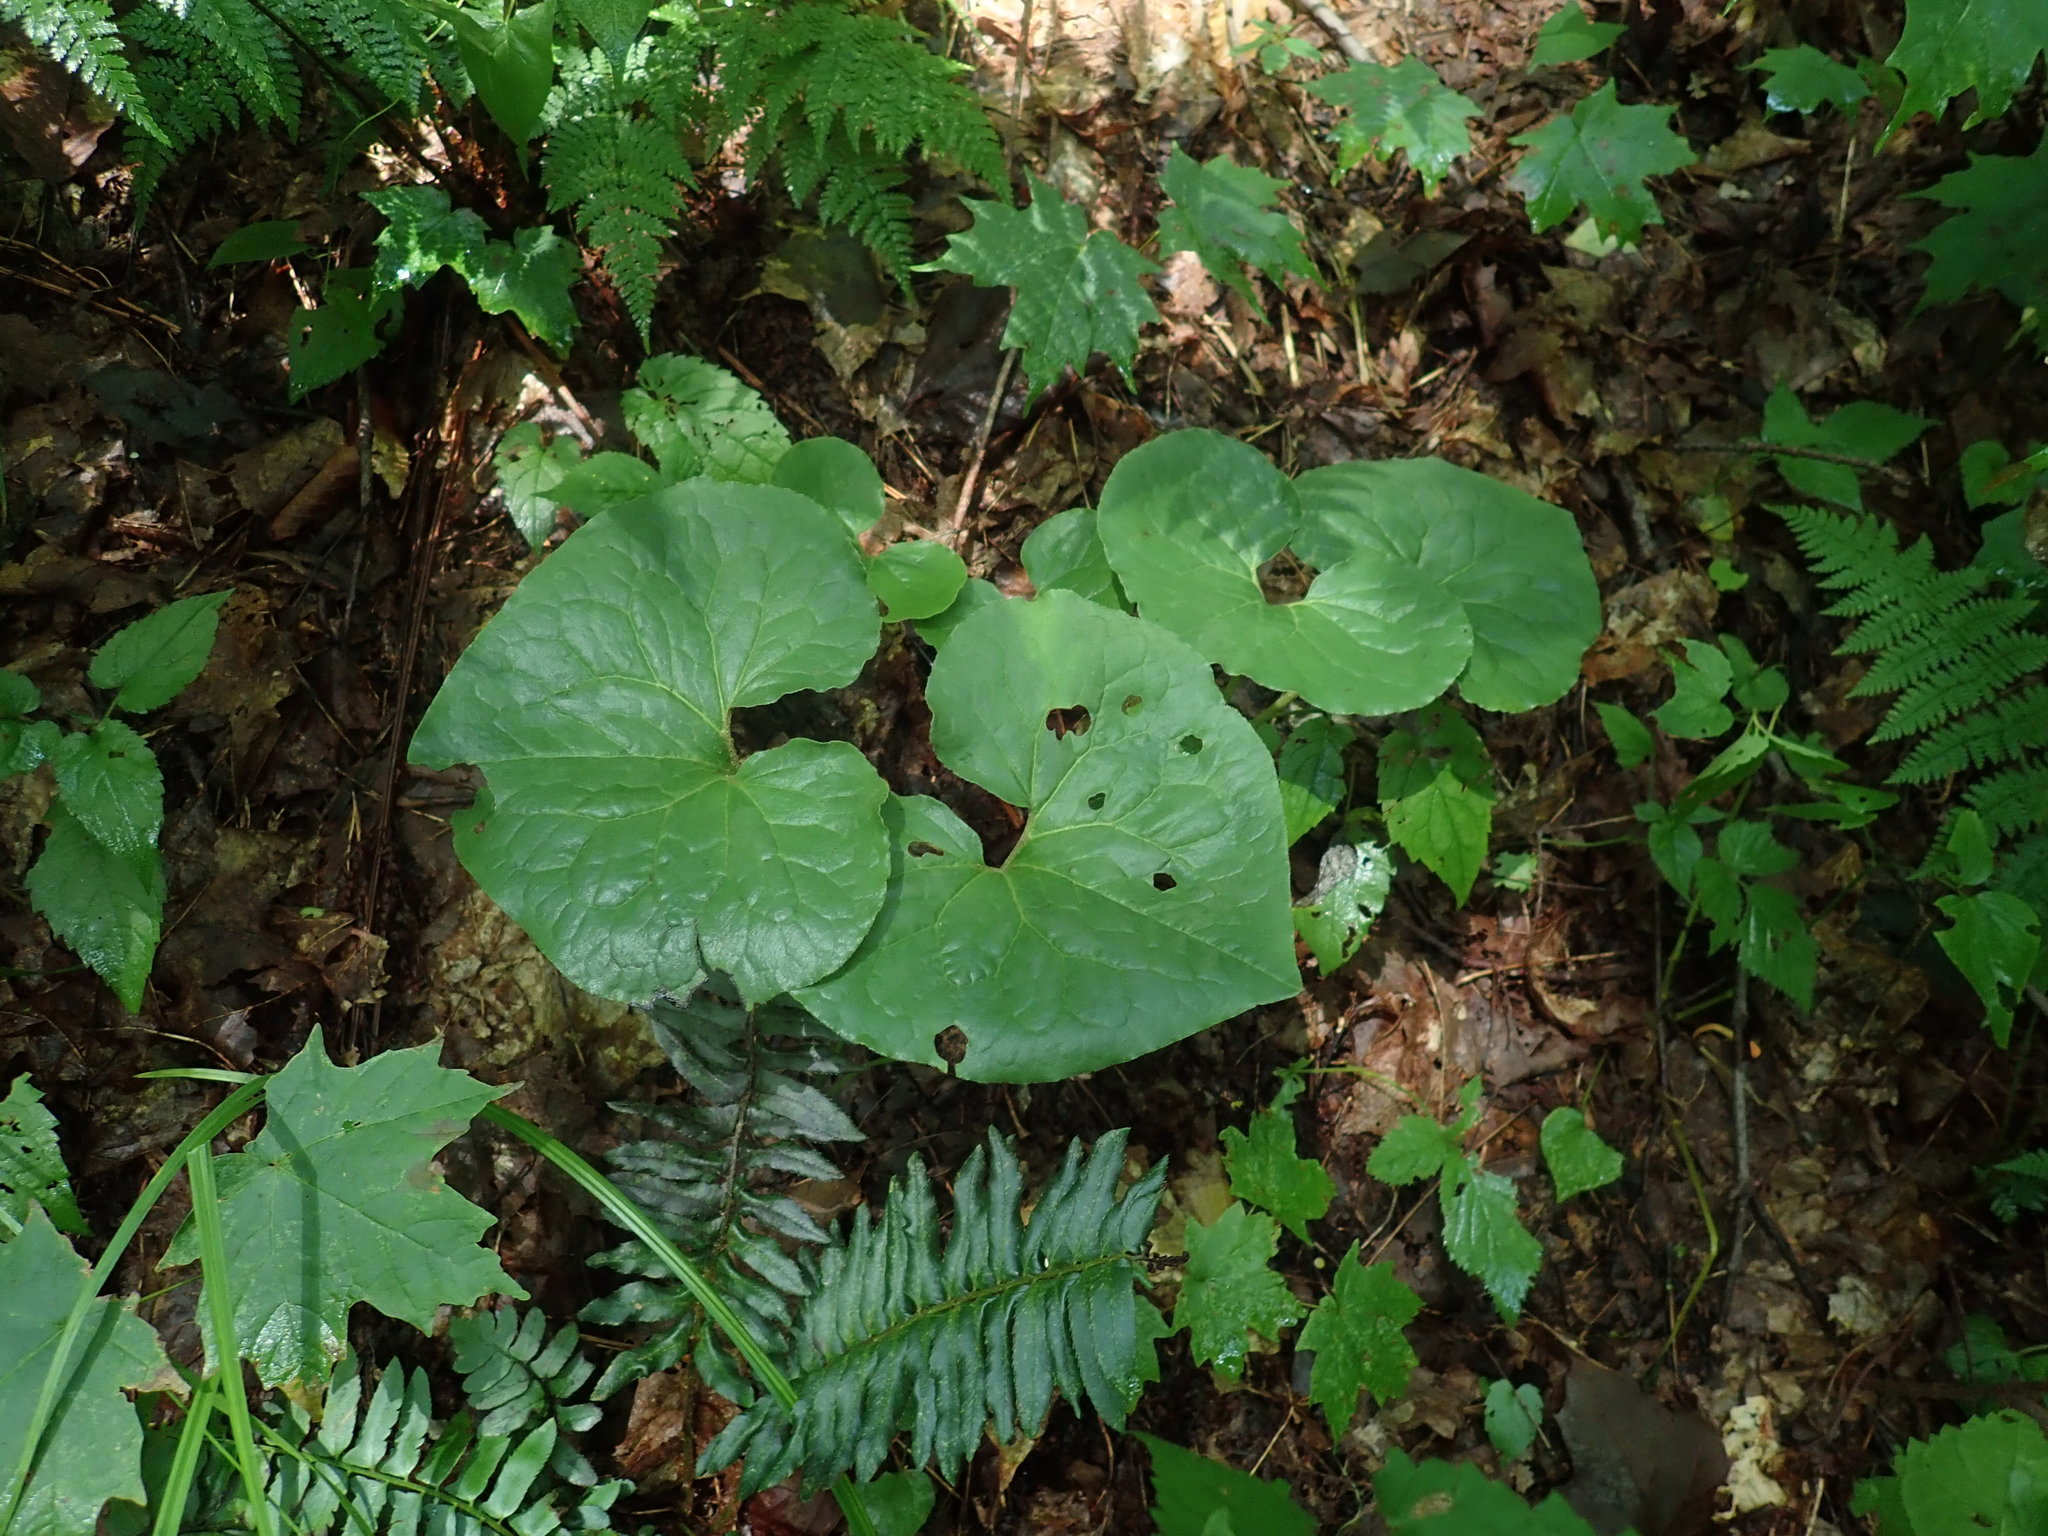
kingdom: Plantae
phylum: Tracheophyta
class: Magnoliopsida
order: Piperales
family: Aristolochiaceae
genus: Asarum
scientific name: Asarum canadense
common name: Wild ginger
